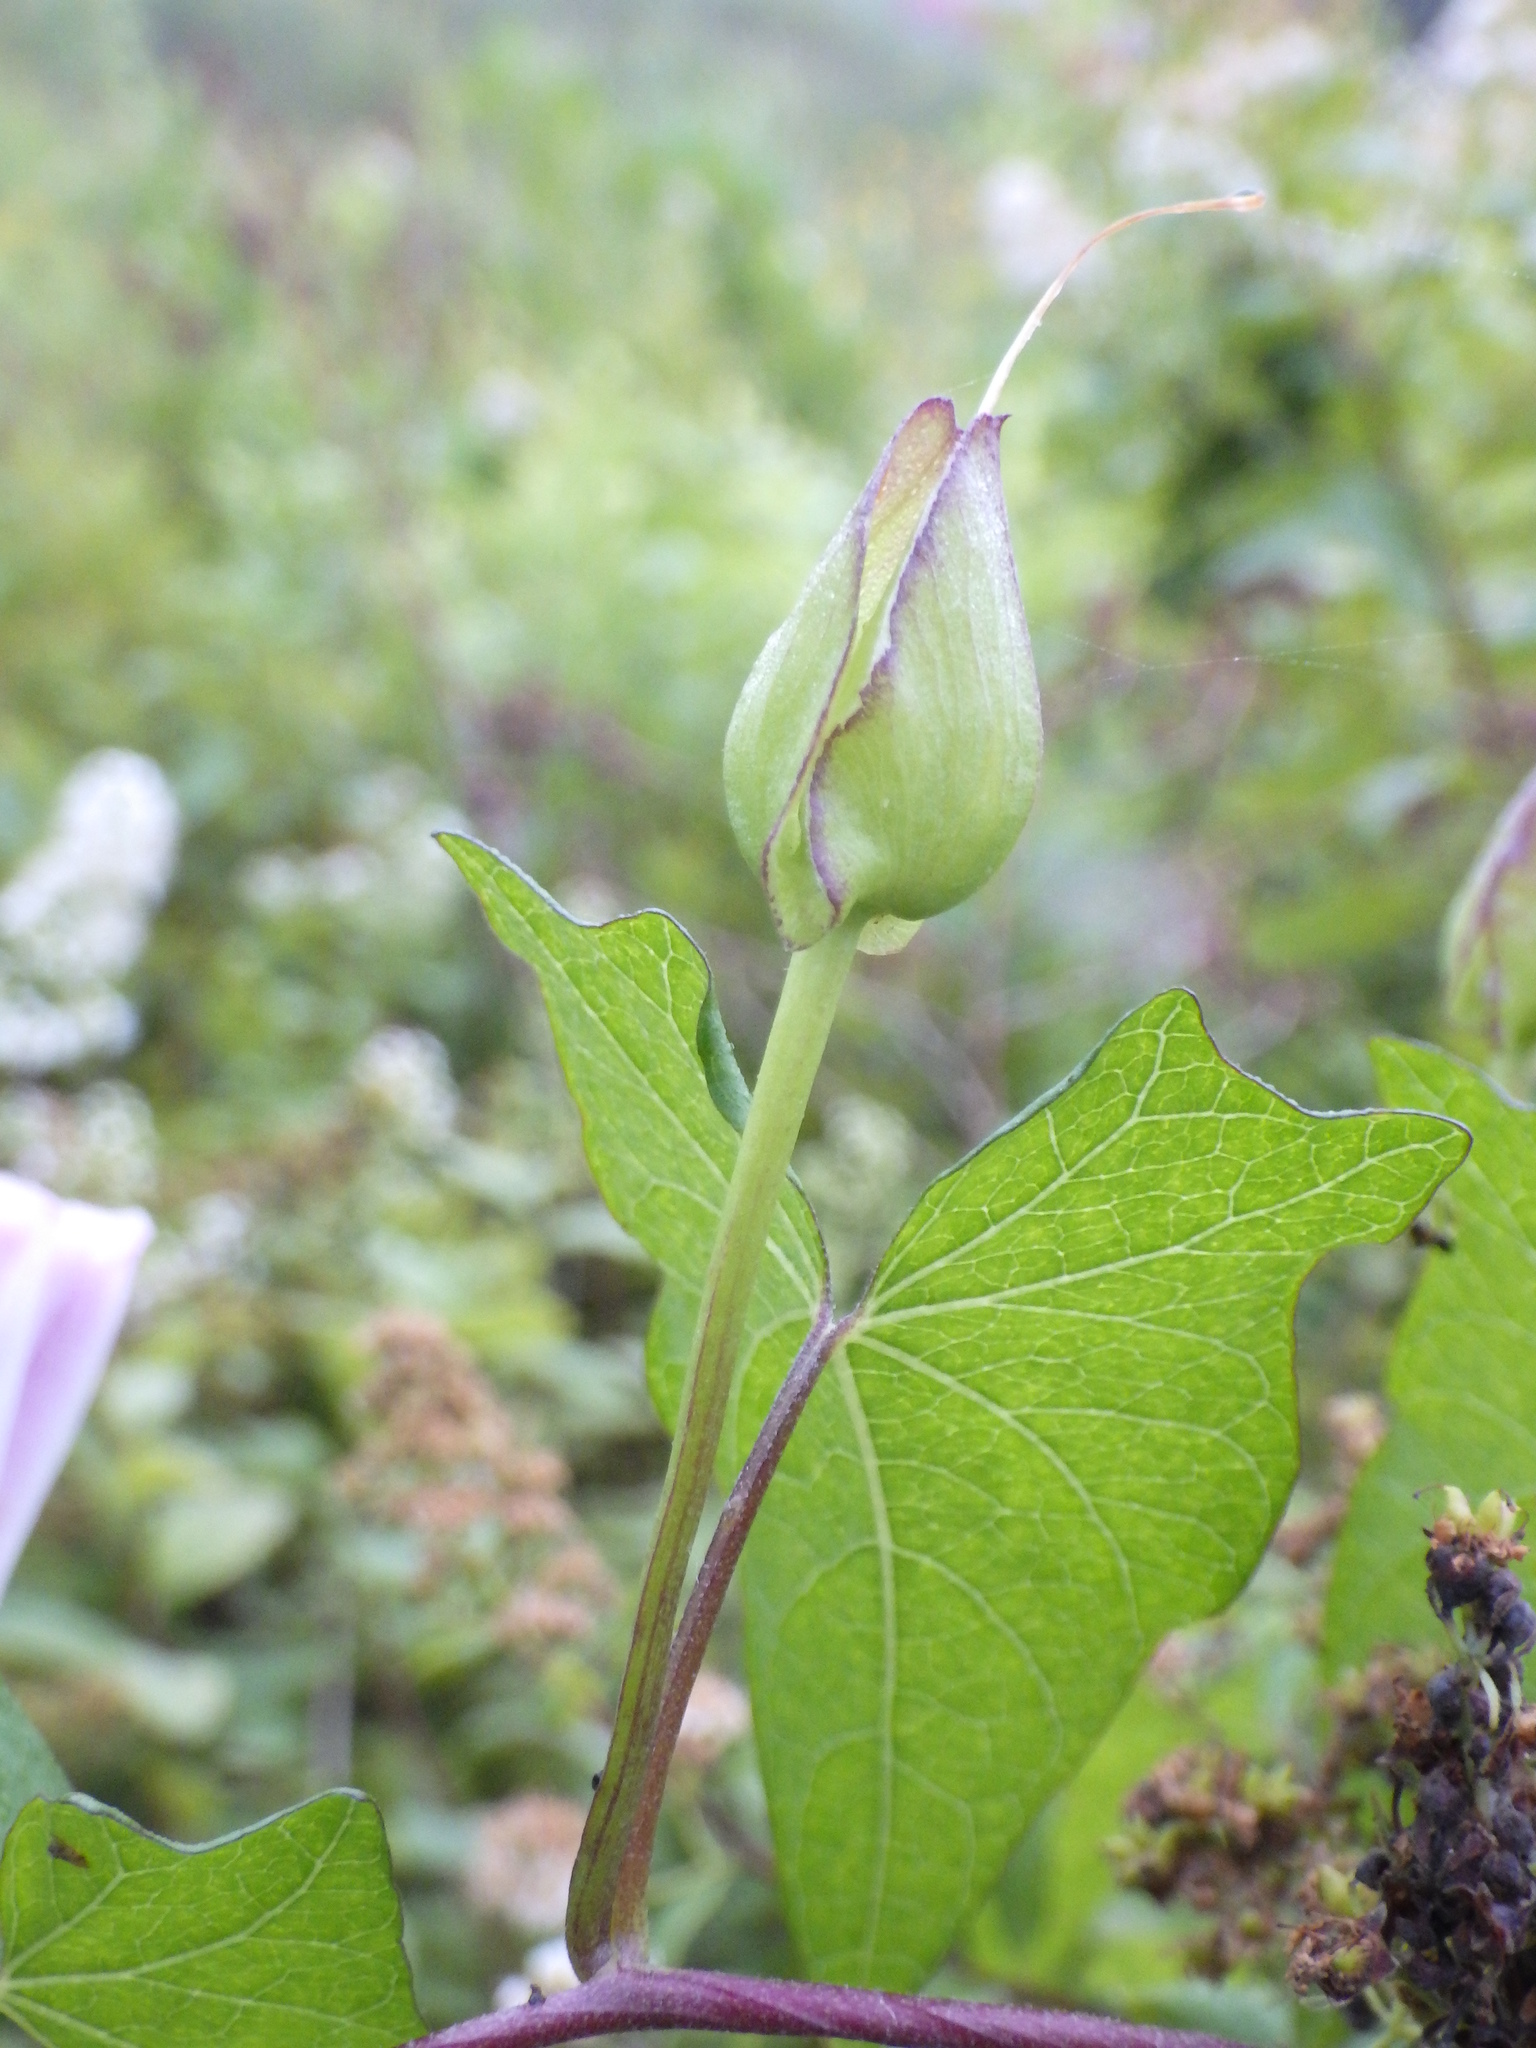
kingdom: Plantae
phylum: Tracheophyta
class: Magnoliopsida
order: Solanales
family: Convolvulaceae
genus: Calystegia
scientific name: Calystegia sepium
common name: Hedge bindweed
